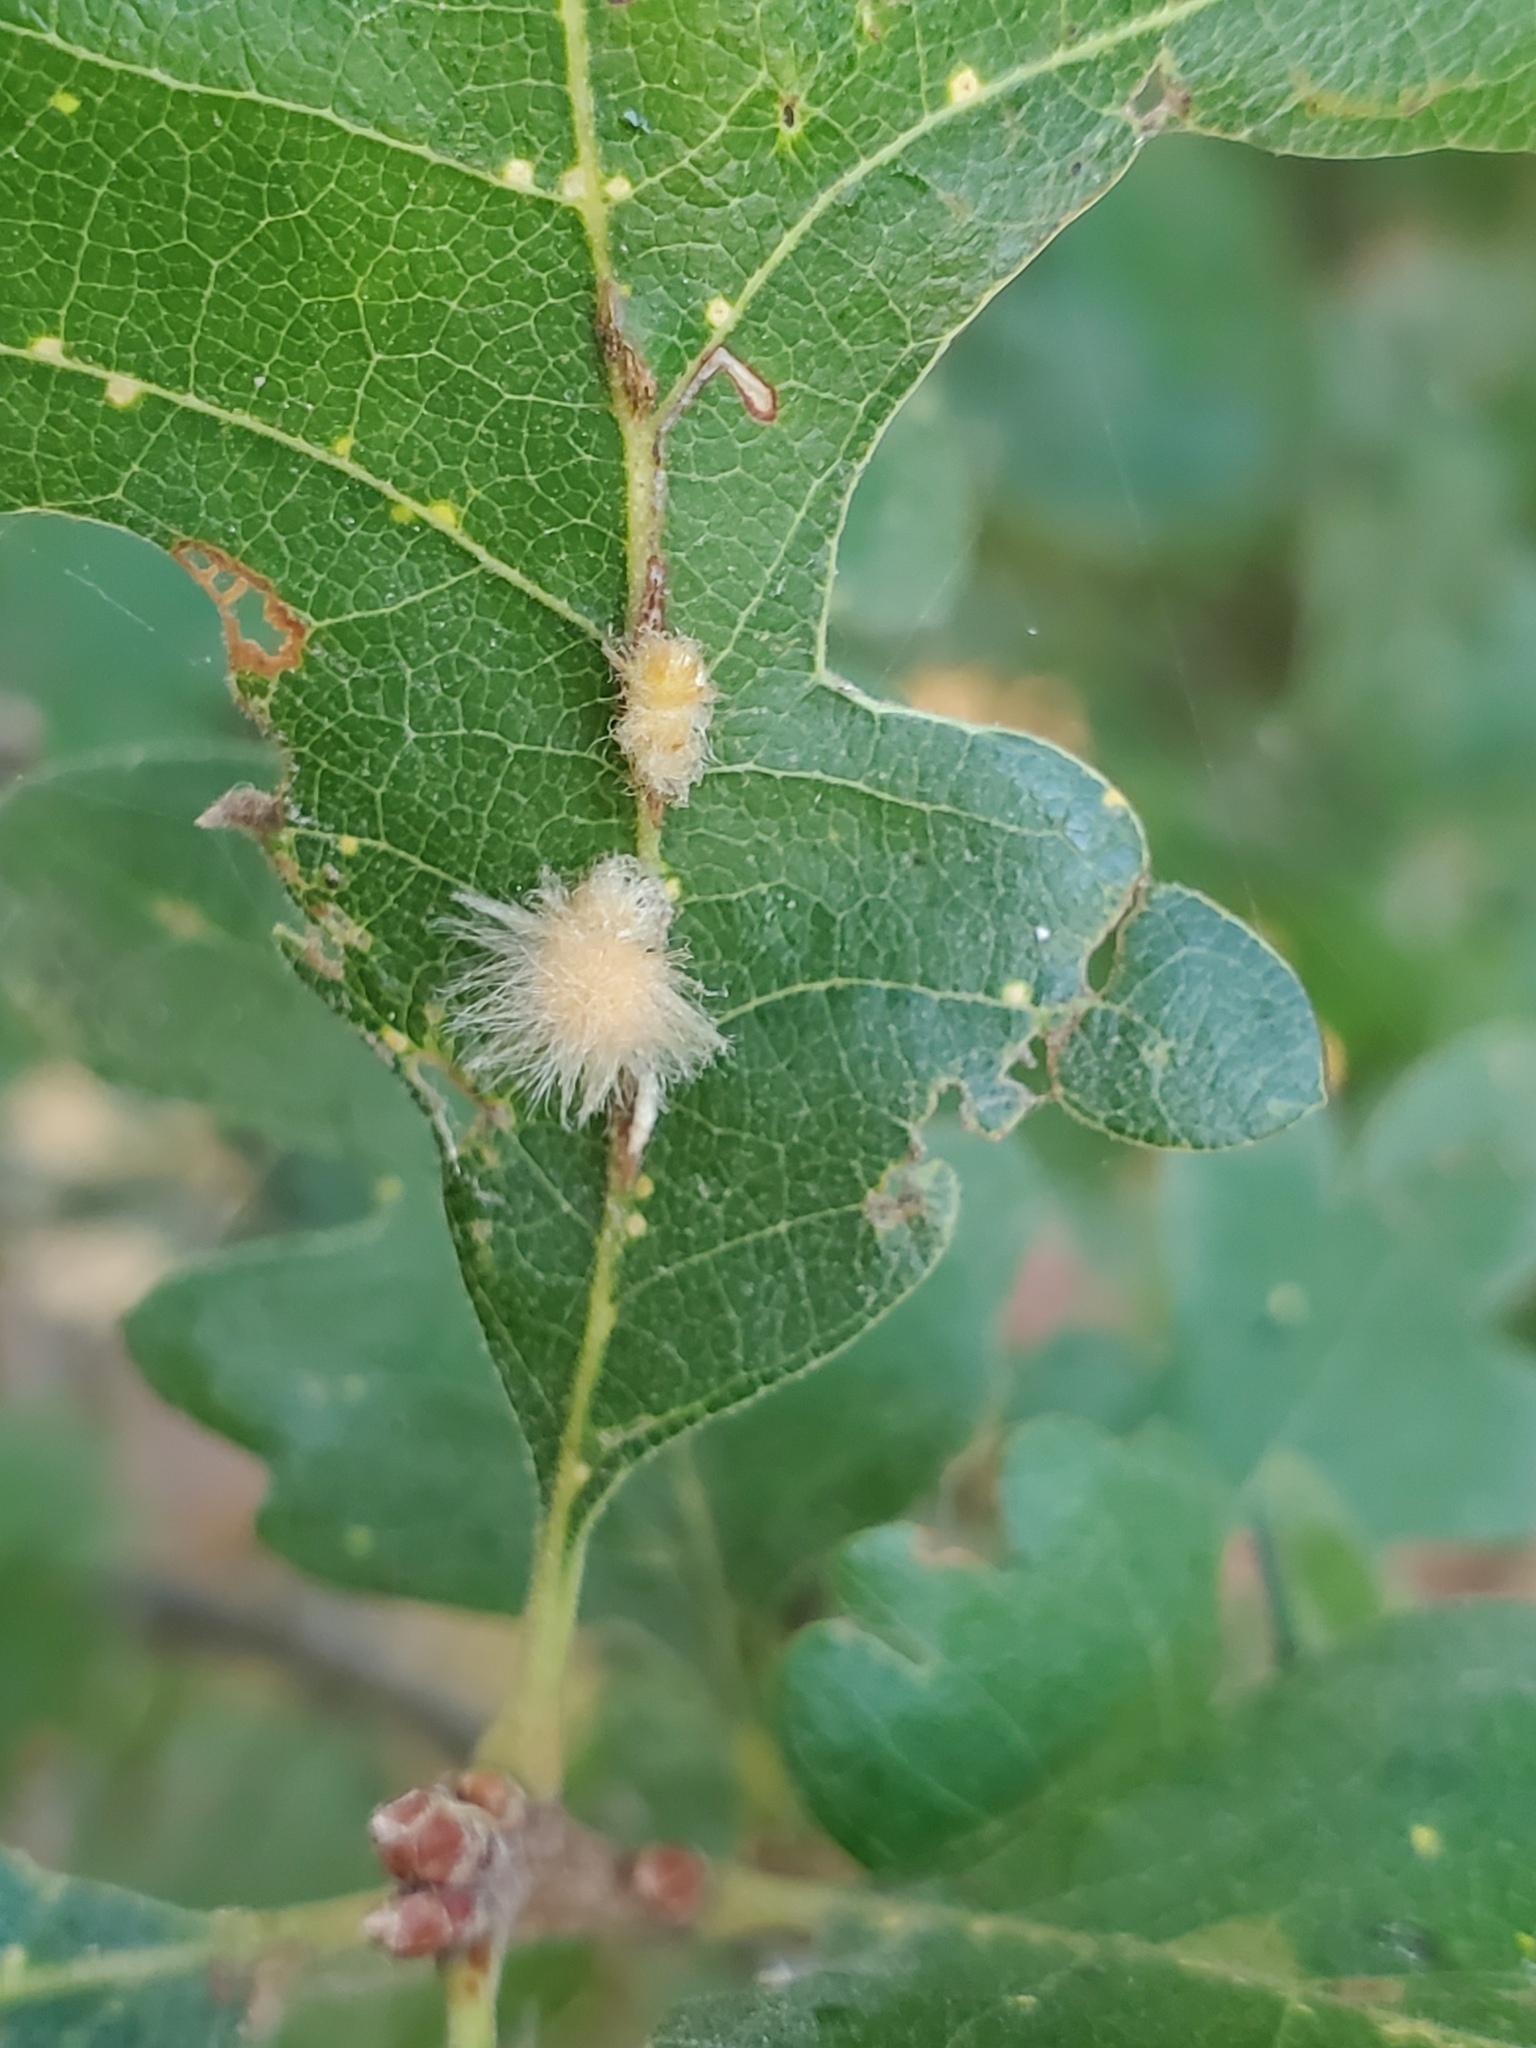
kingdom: Animalia
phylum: Arthropoda
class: Insecta
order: Hymenoptera
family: Cynipidae
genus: Andricus
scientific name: Andricus Druon fullawayi
